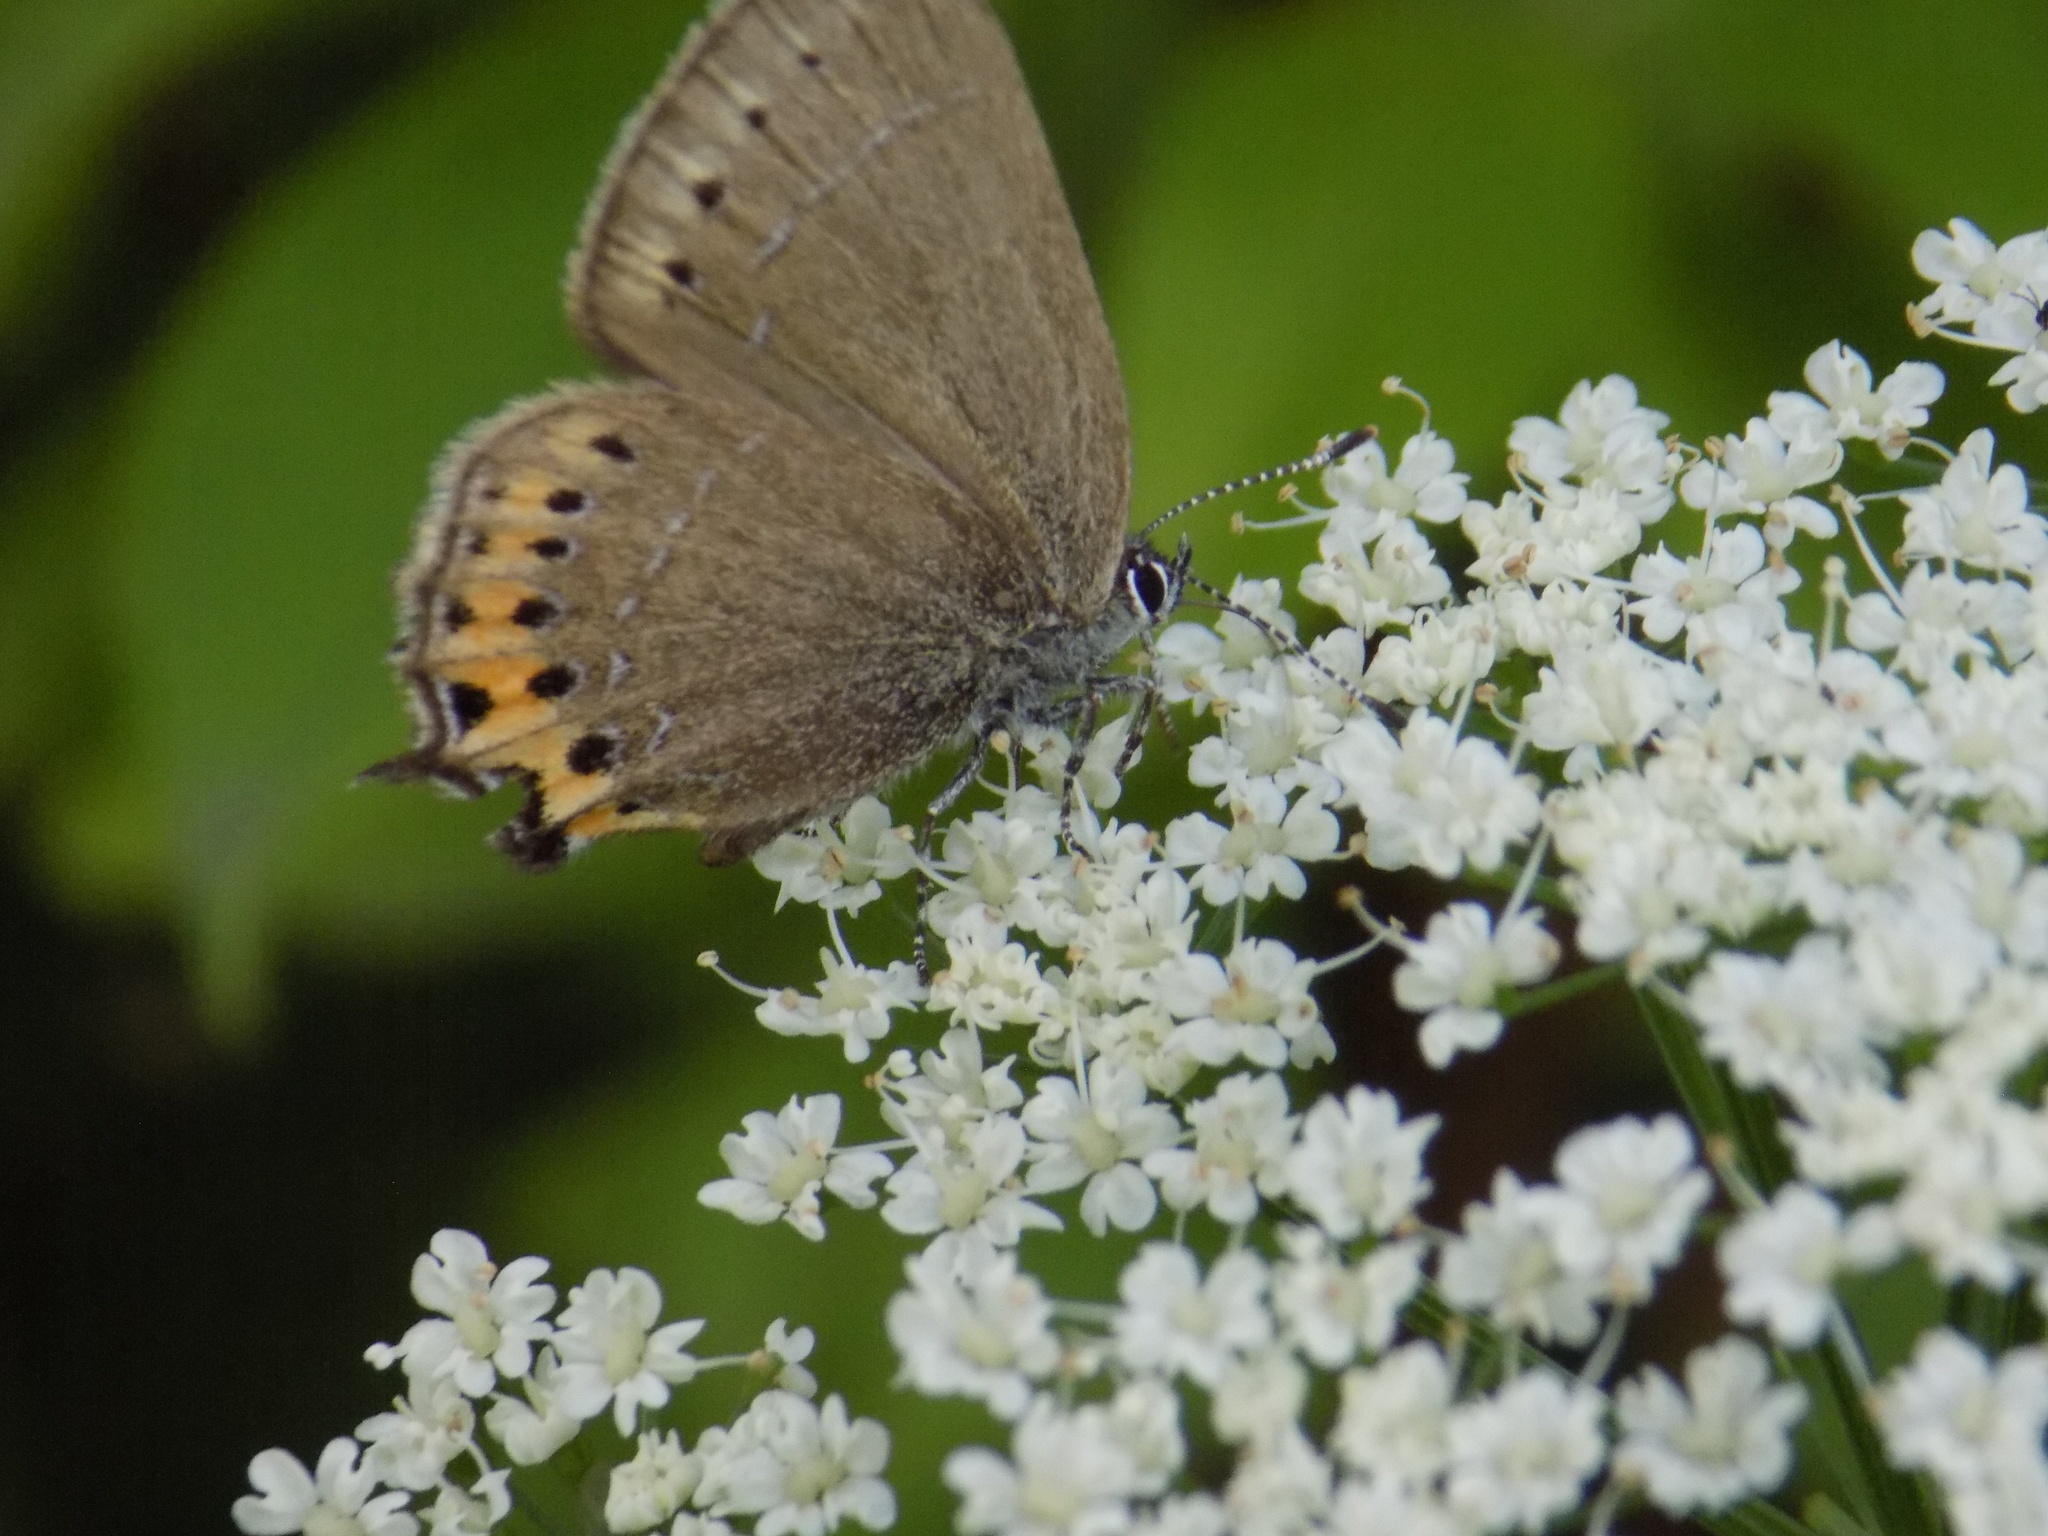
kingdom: Animalia
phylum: Arthropoda
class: Insecta
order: Lepidoptera
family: Lycaenidae
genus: Fixsenia
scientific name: Fixsenia pruni
